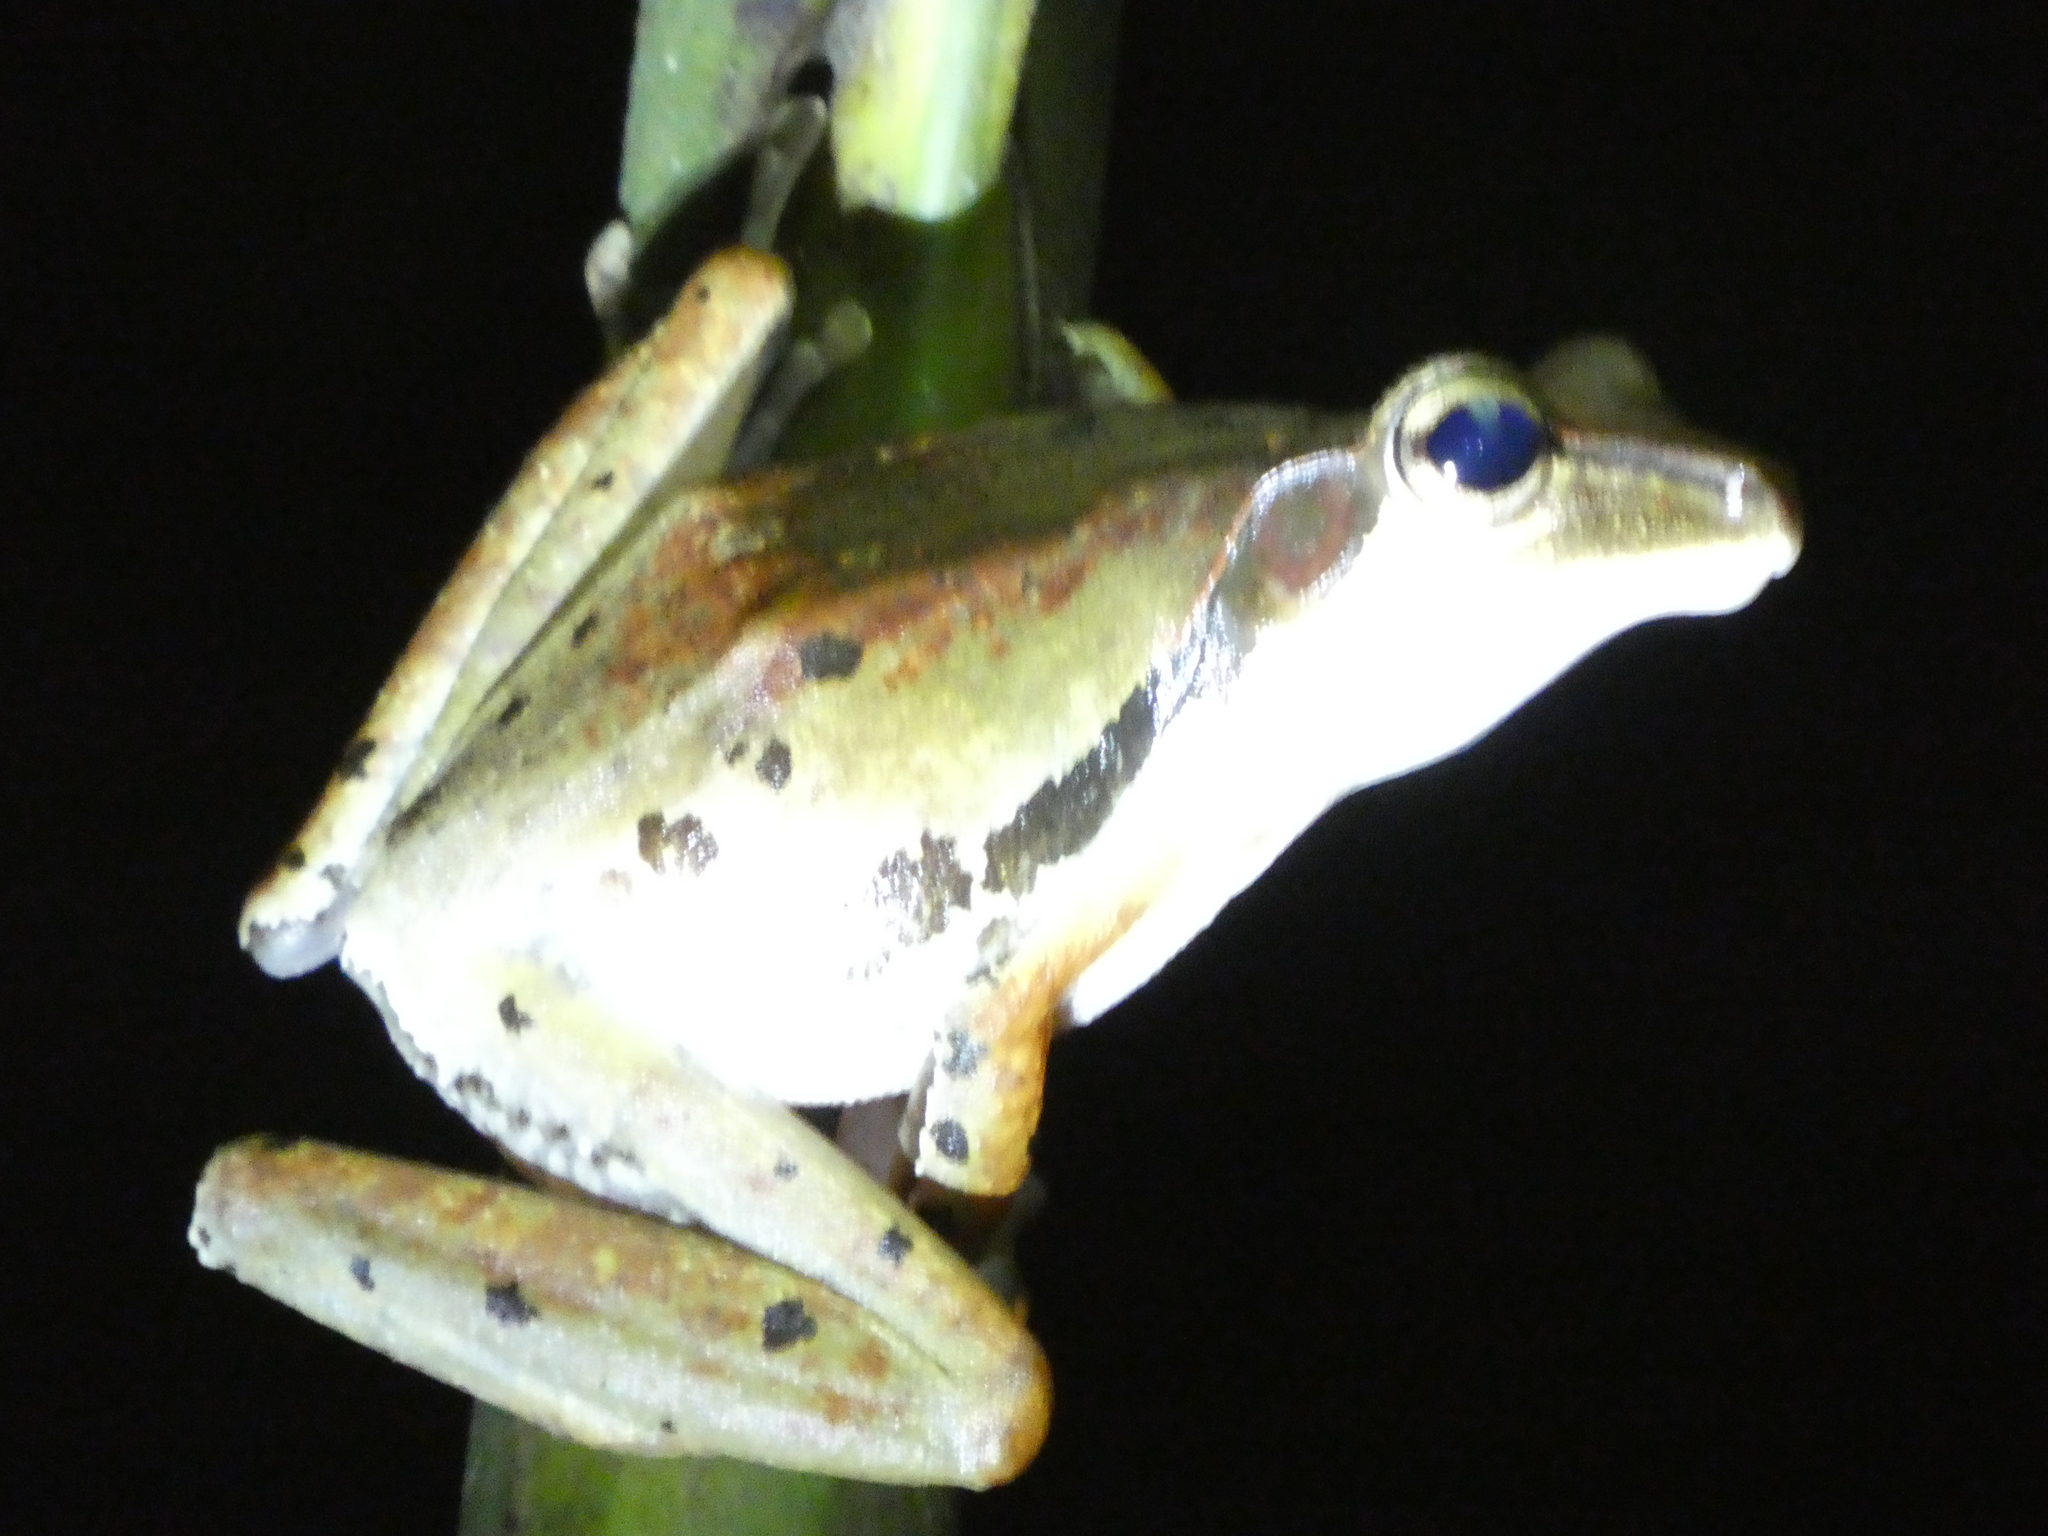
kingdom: Animalia
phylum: Chordata
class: Amphibia
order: Anura
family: Rhacophoridae
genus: Polypedates
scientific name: Polypedates macrotis
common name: Dark-eared tree frog
